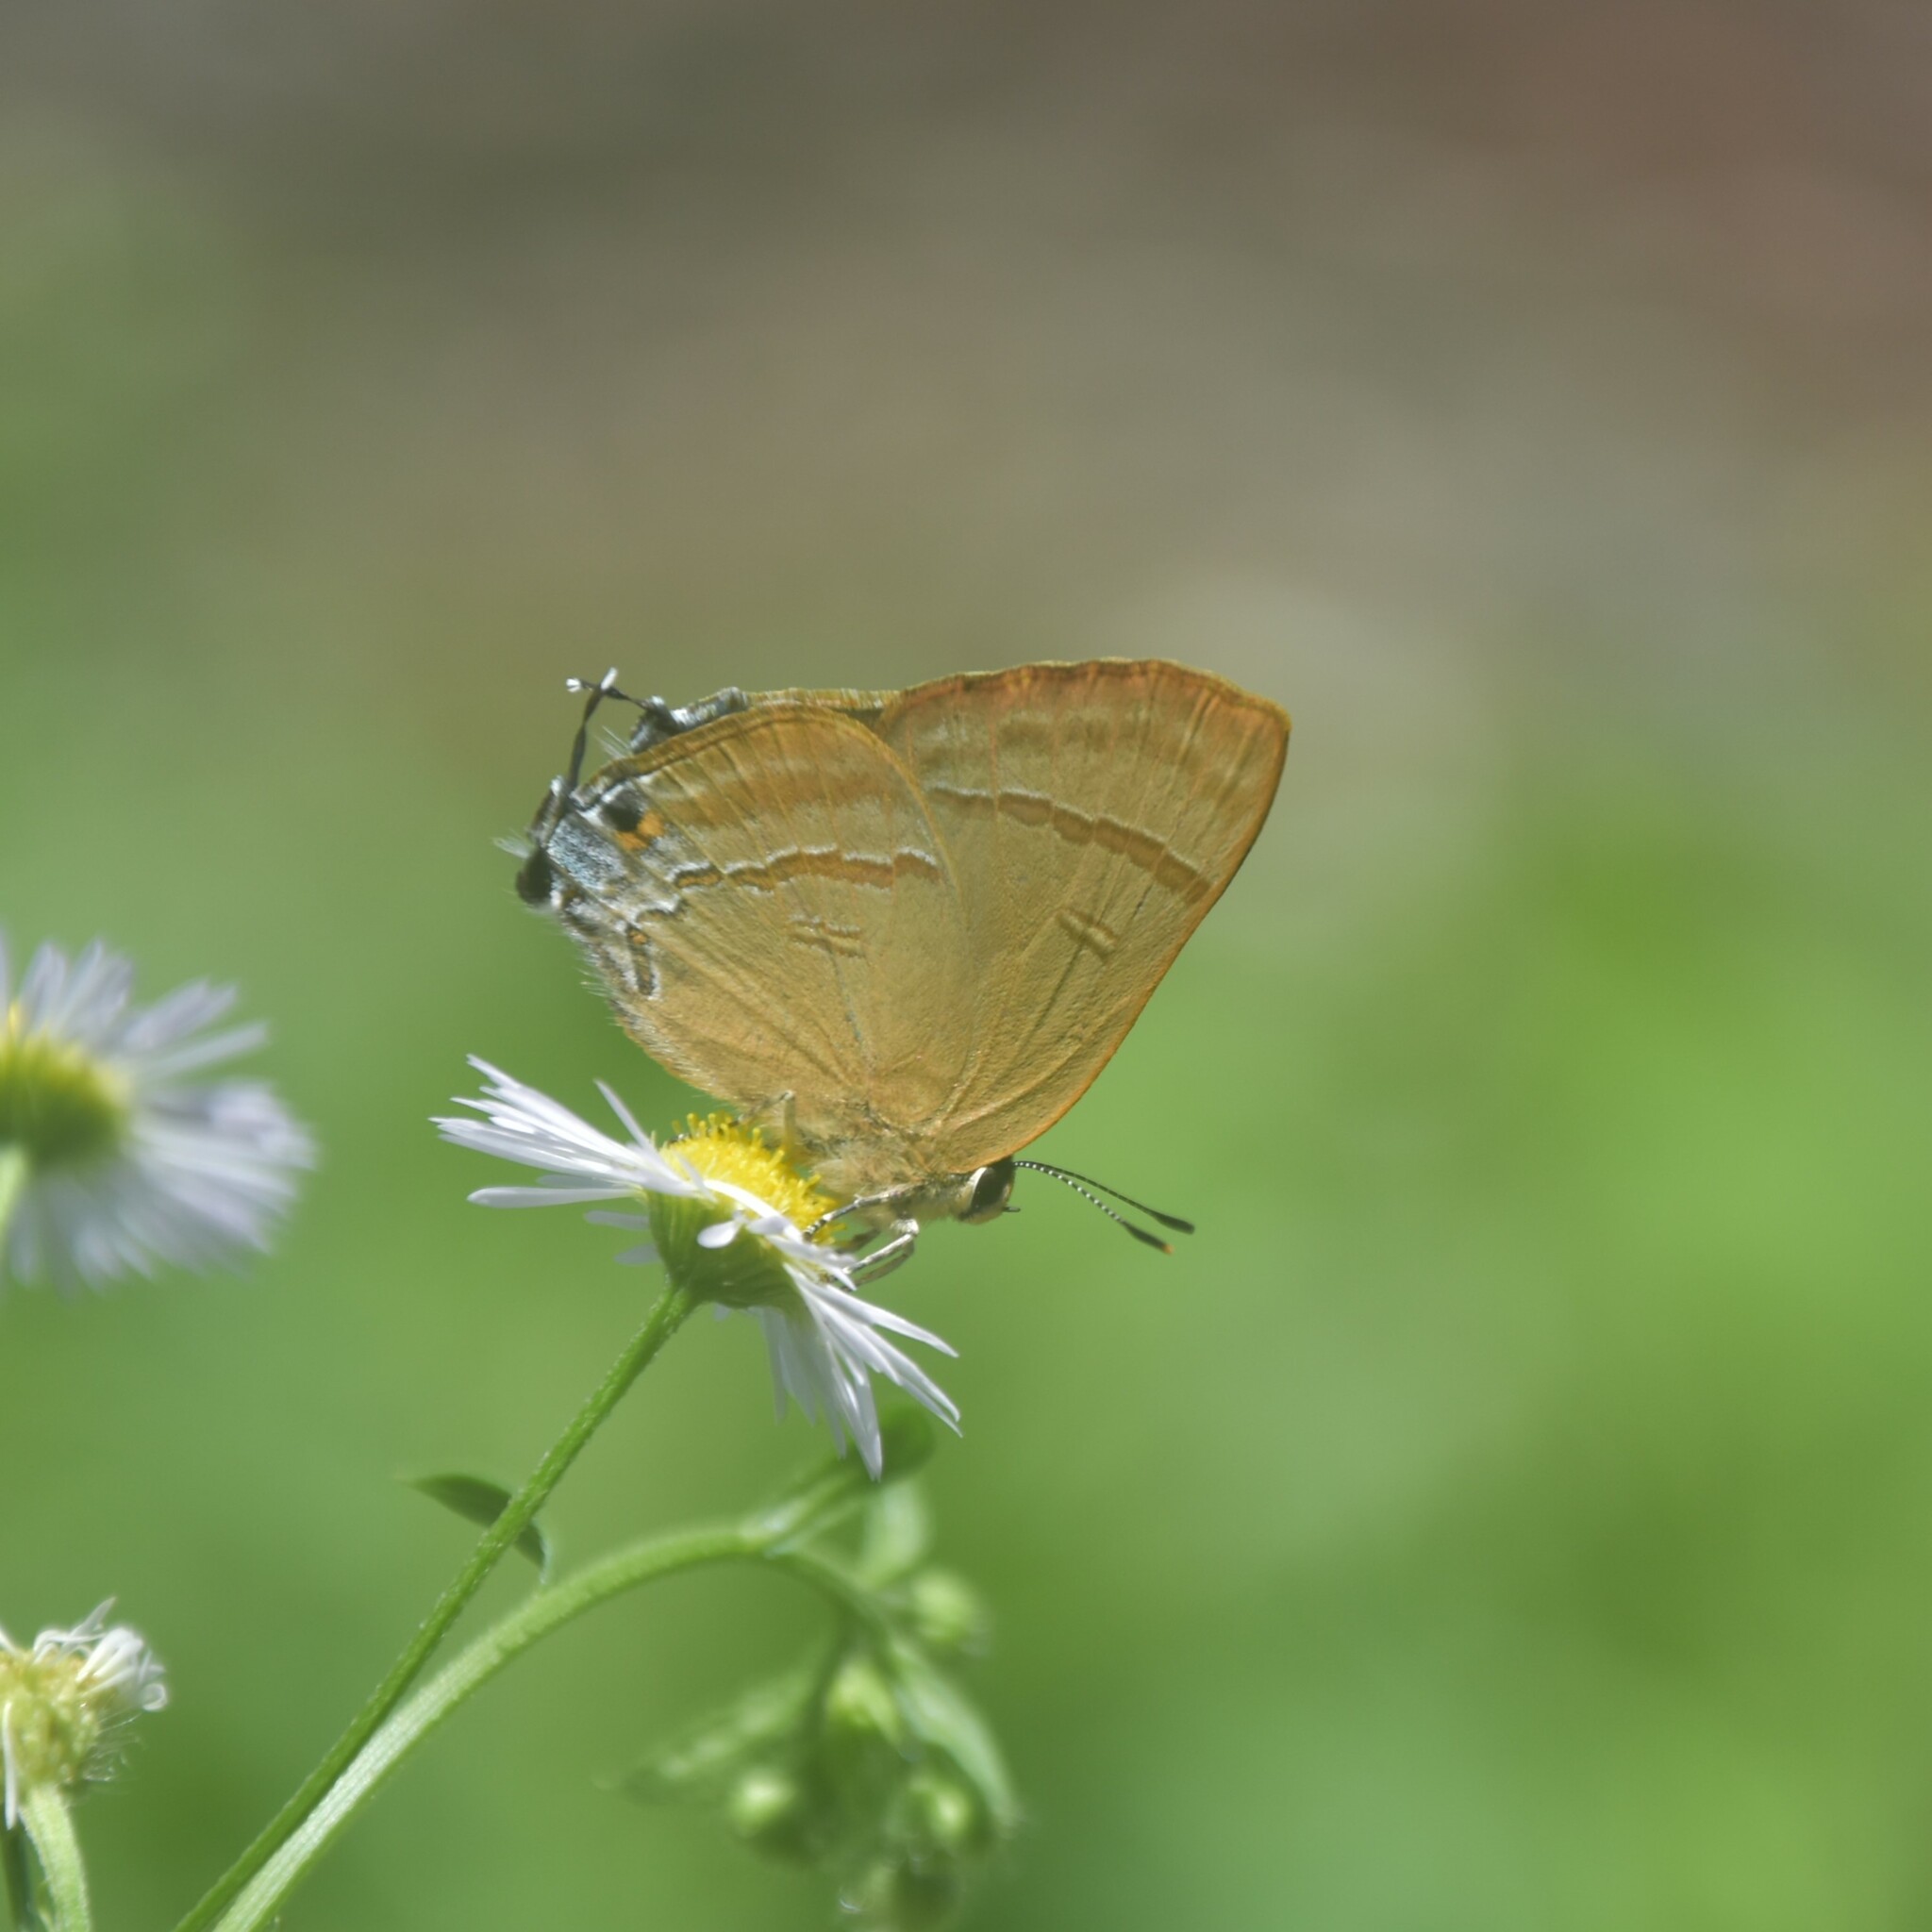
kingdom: Animalia
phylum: Arthropoda
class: Insecta
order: Lepidoptera
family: Lycaenidae
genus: Rapala
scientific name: Rapala nissa
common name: Common flash
